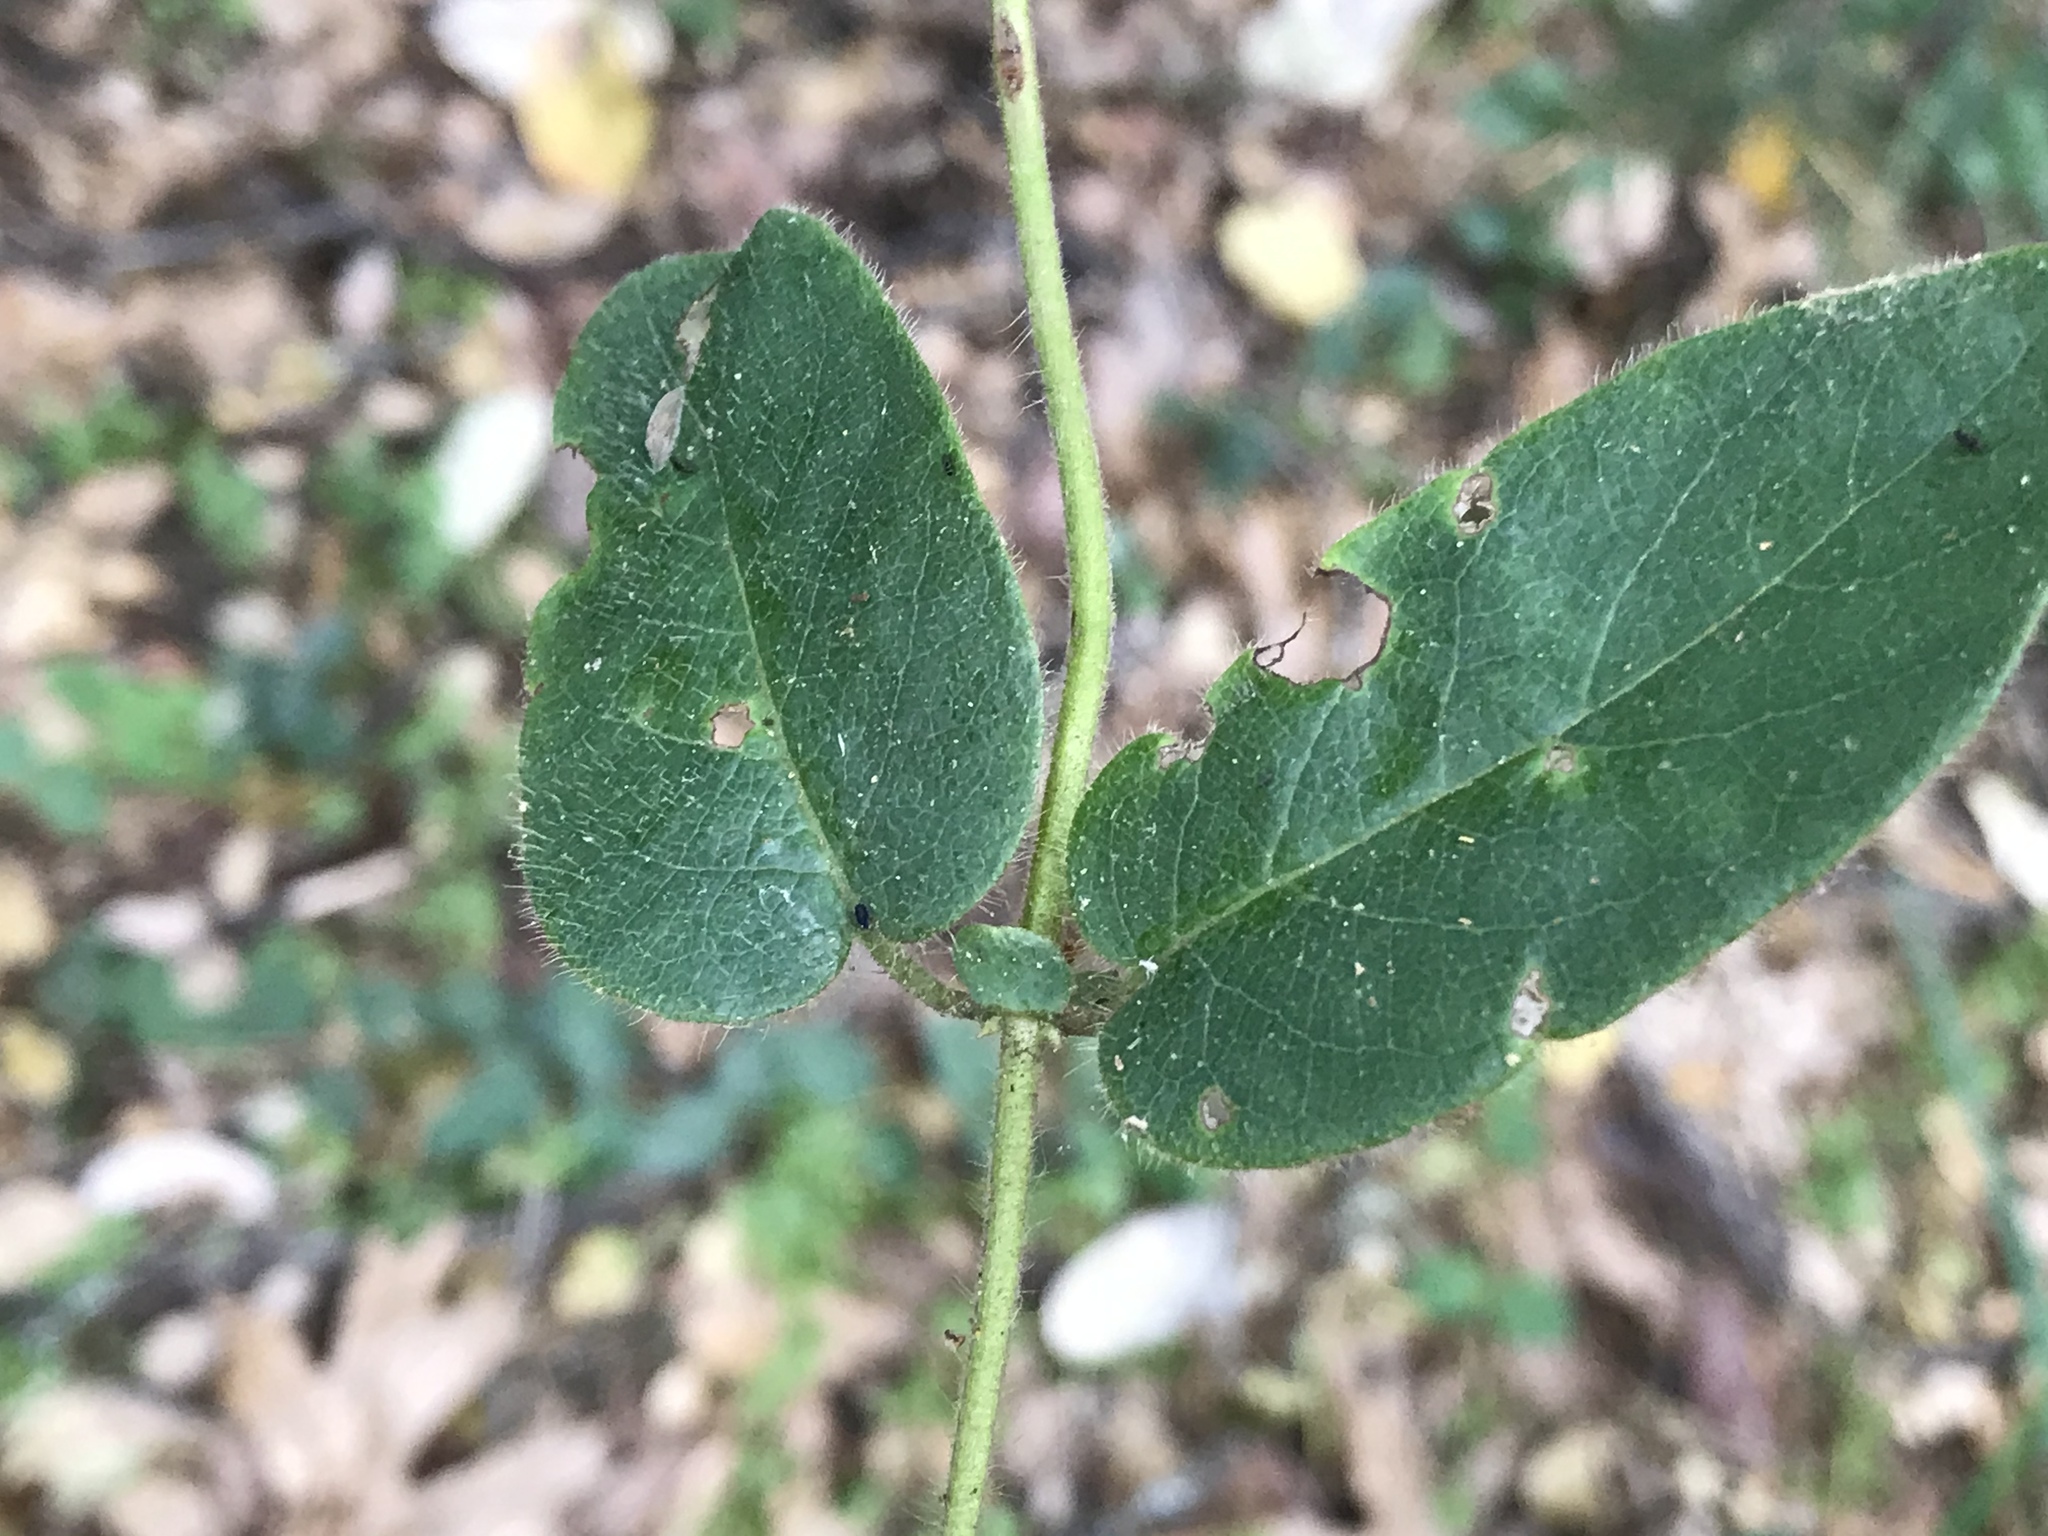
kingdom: Plantae
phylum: Tracheophyta
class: Magnoliopsida
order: Dipsacales
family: Caprifoliaceae
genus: Lonicera
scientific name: Lonicera hispidula
